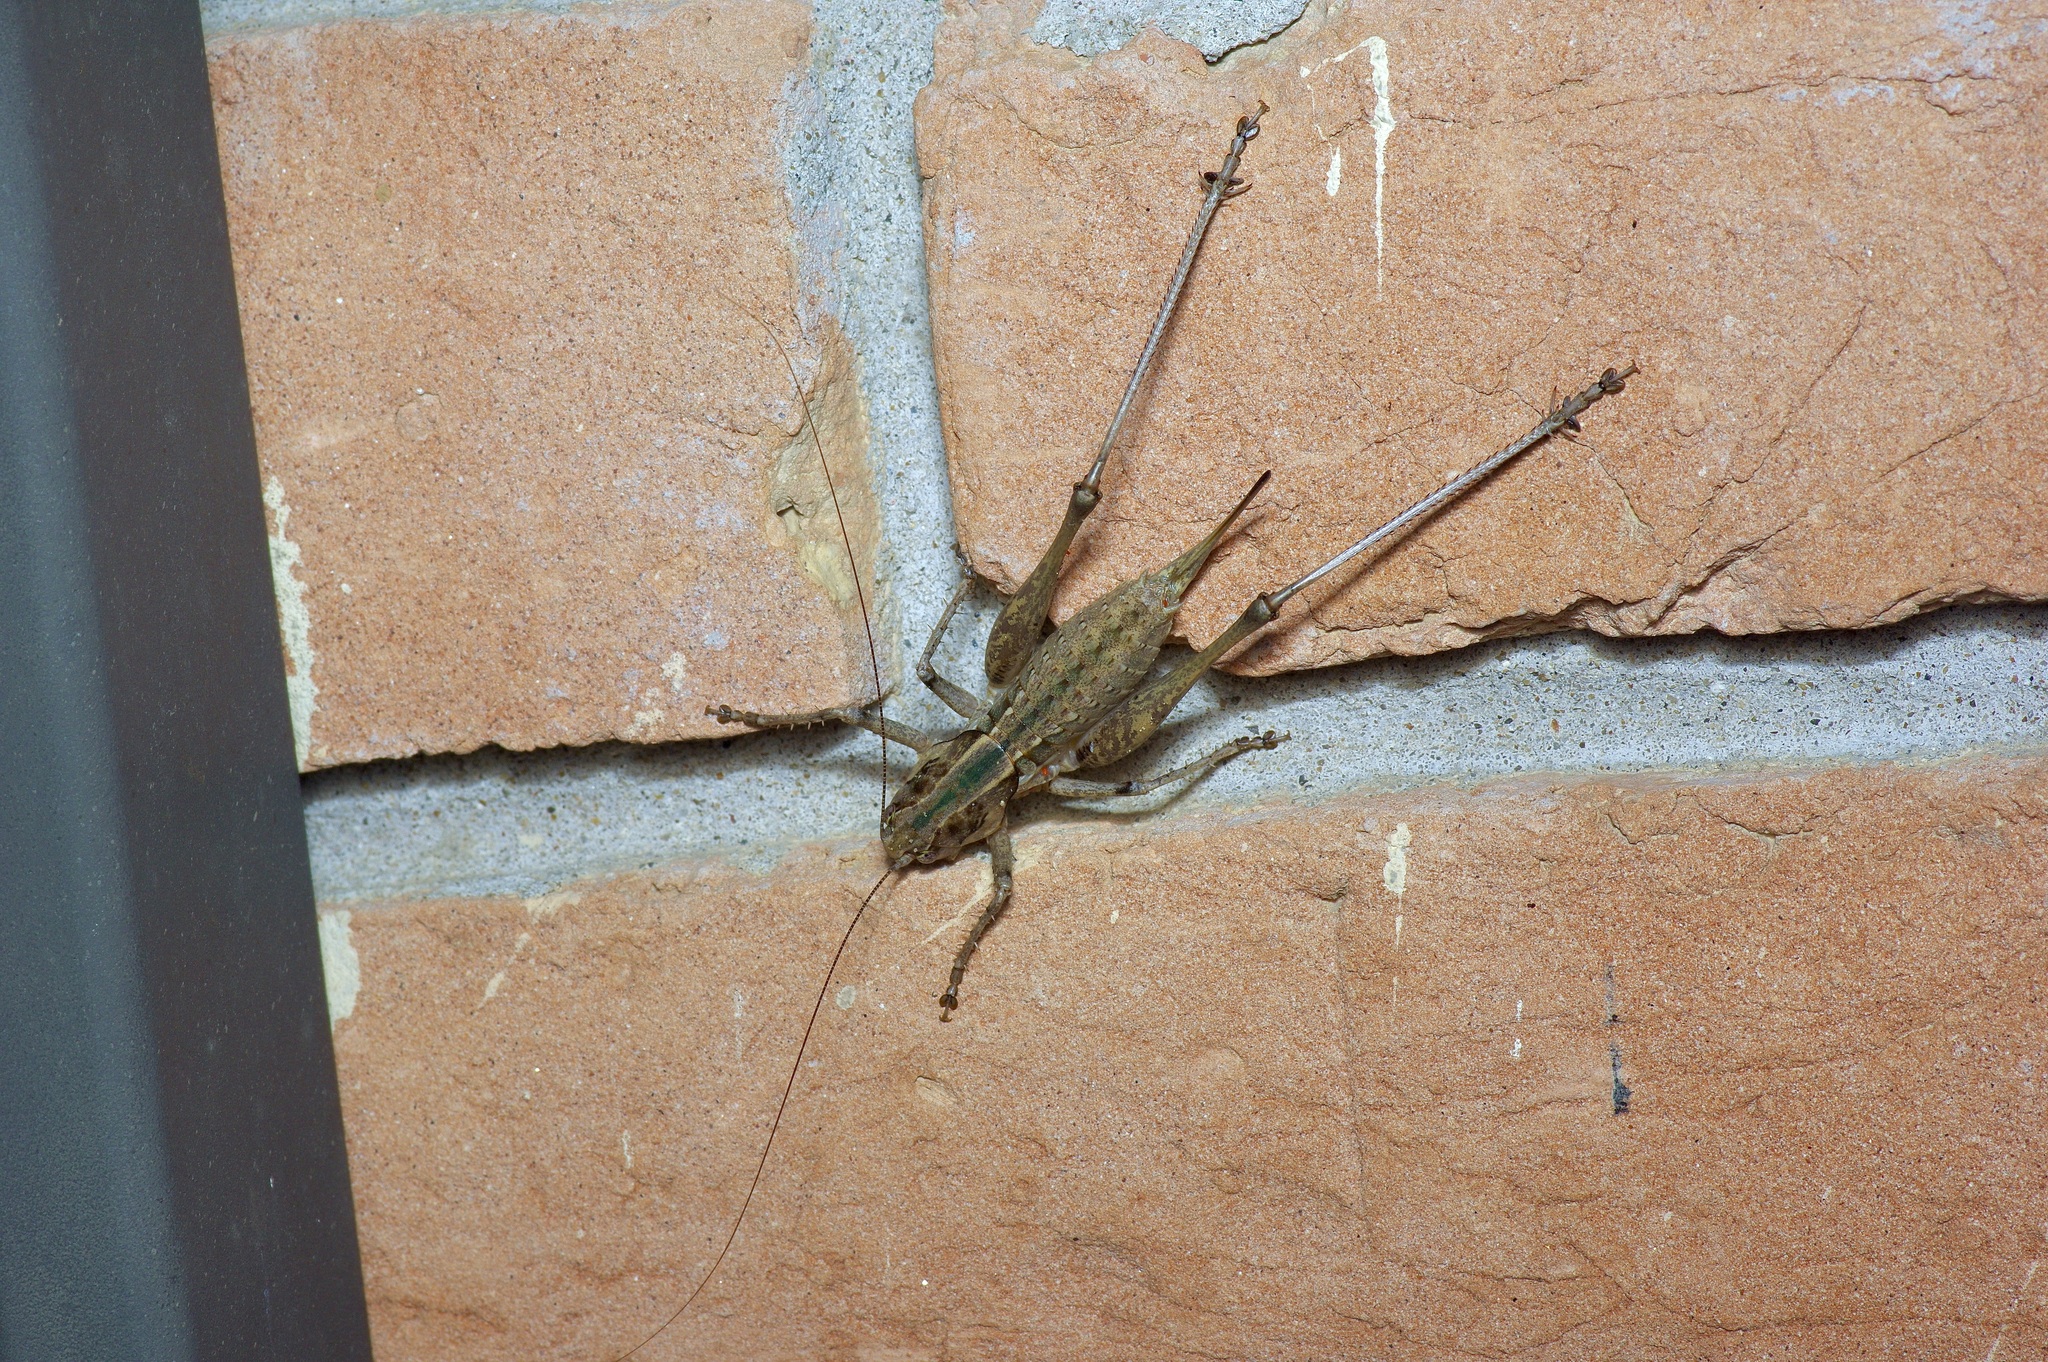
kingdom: Animalia
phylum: Arthropoda
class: Insecta
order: Orthoptera
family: Tettigoniidae
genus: Pediodectes
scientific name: Pediodectes grandis
